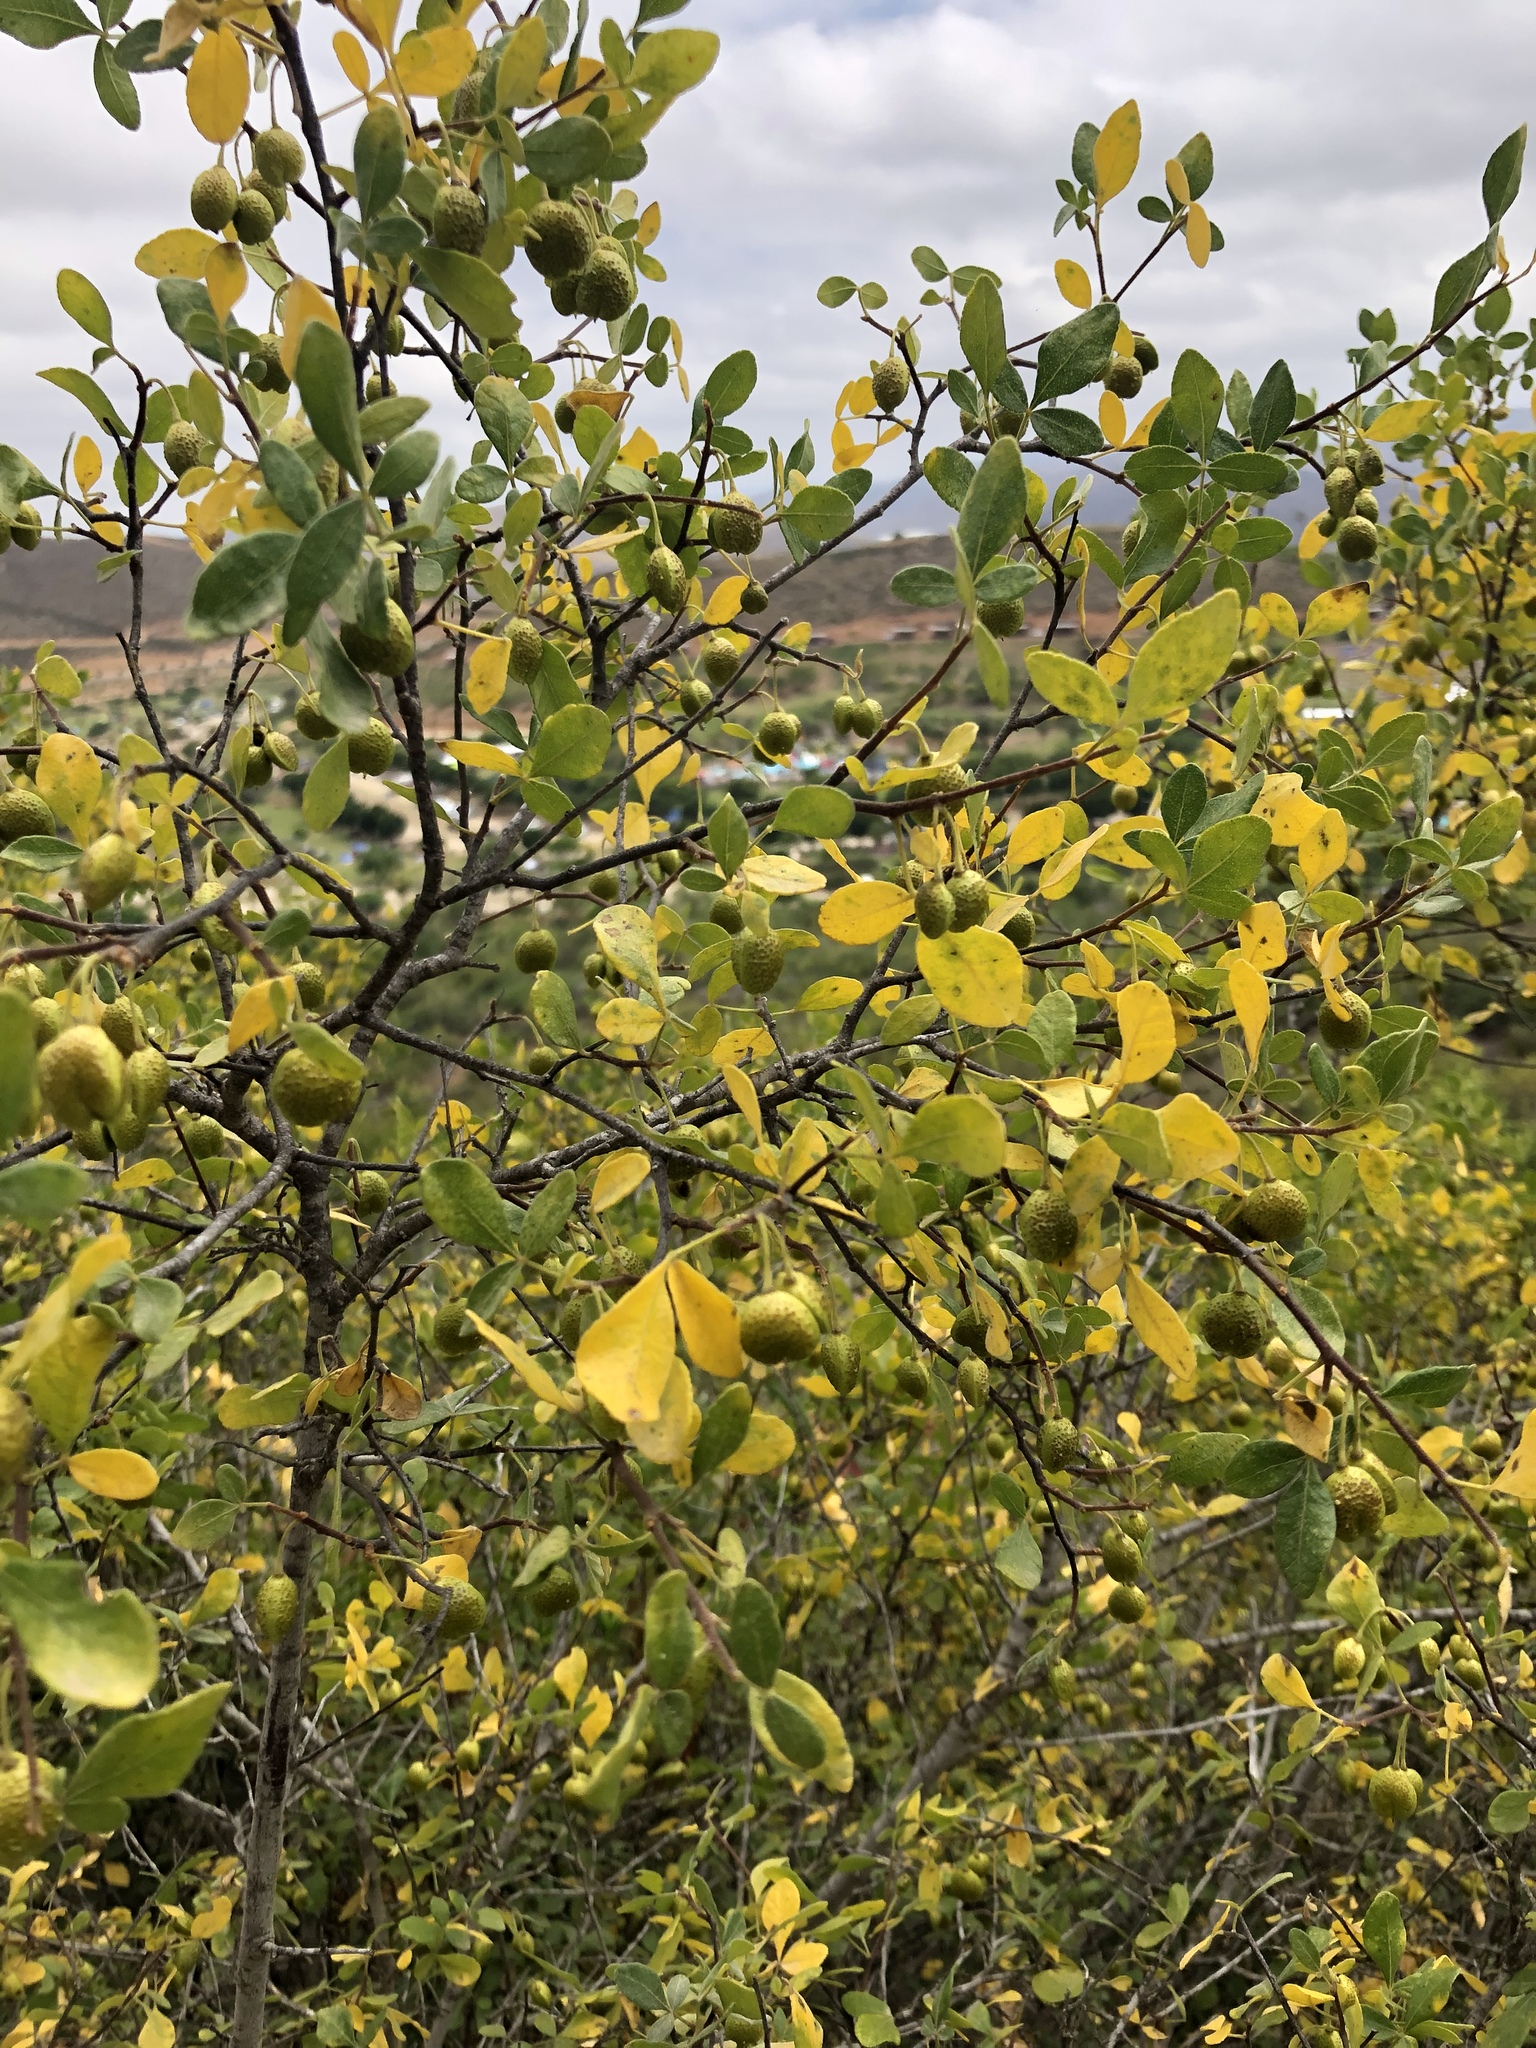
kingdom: Plantae
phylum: Tracheophyta
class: Magnoliopsida
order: Sapindales
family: Rutaceae
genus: Ptelea
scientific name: Ptelea aptera
